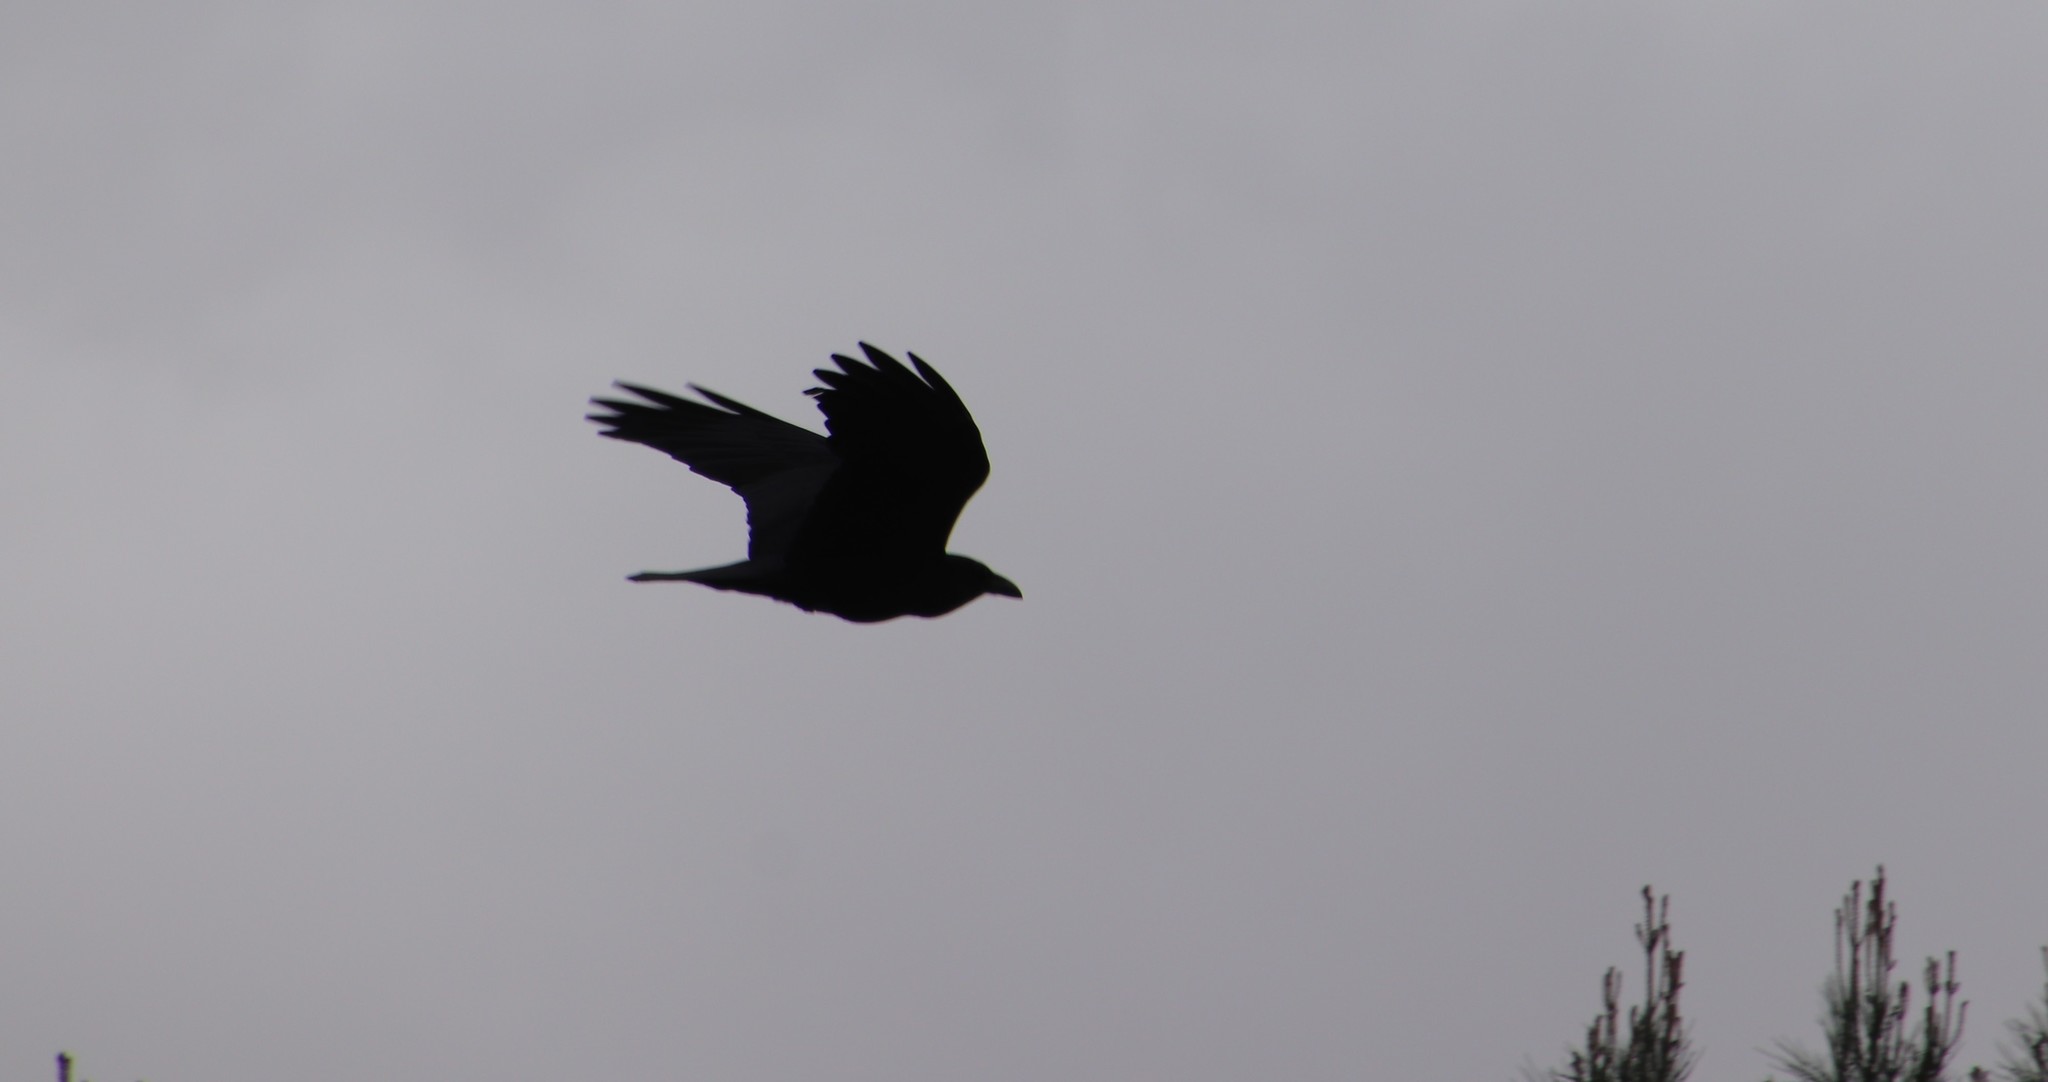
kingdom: Animalia
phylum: Chordata
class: Aves
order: Passeriformes
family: Corvidae
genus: Corvus
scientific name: Corvus corax
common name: Common raven
